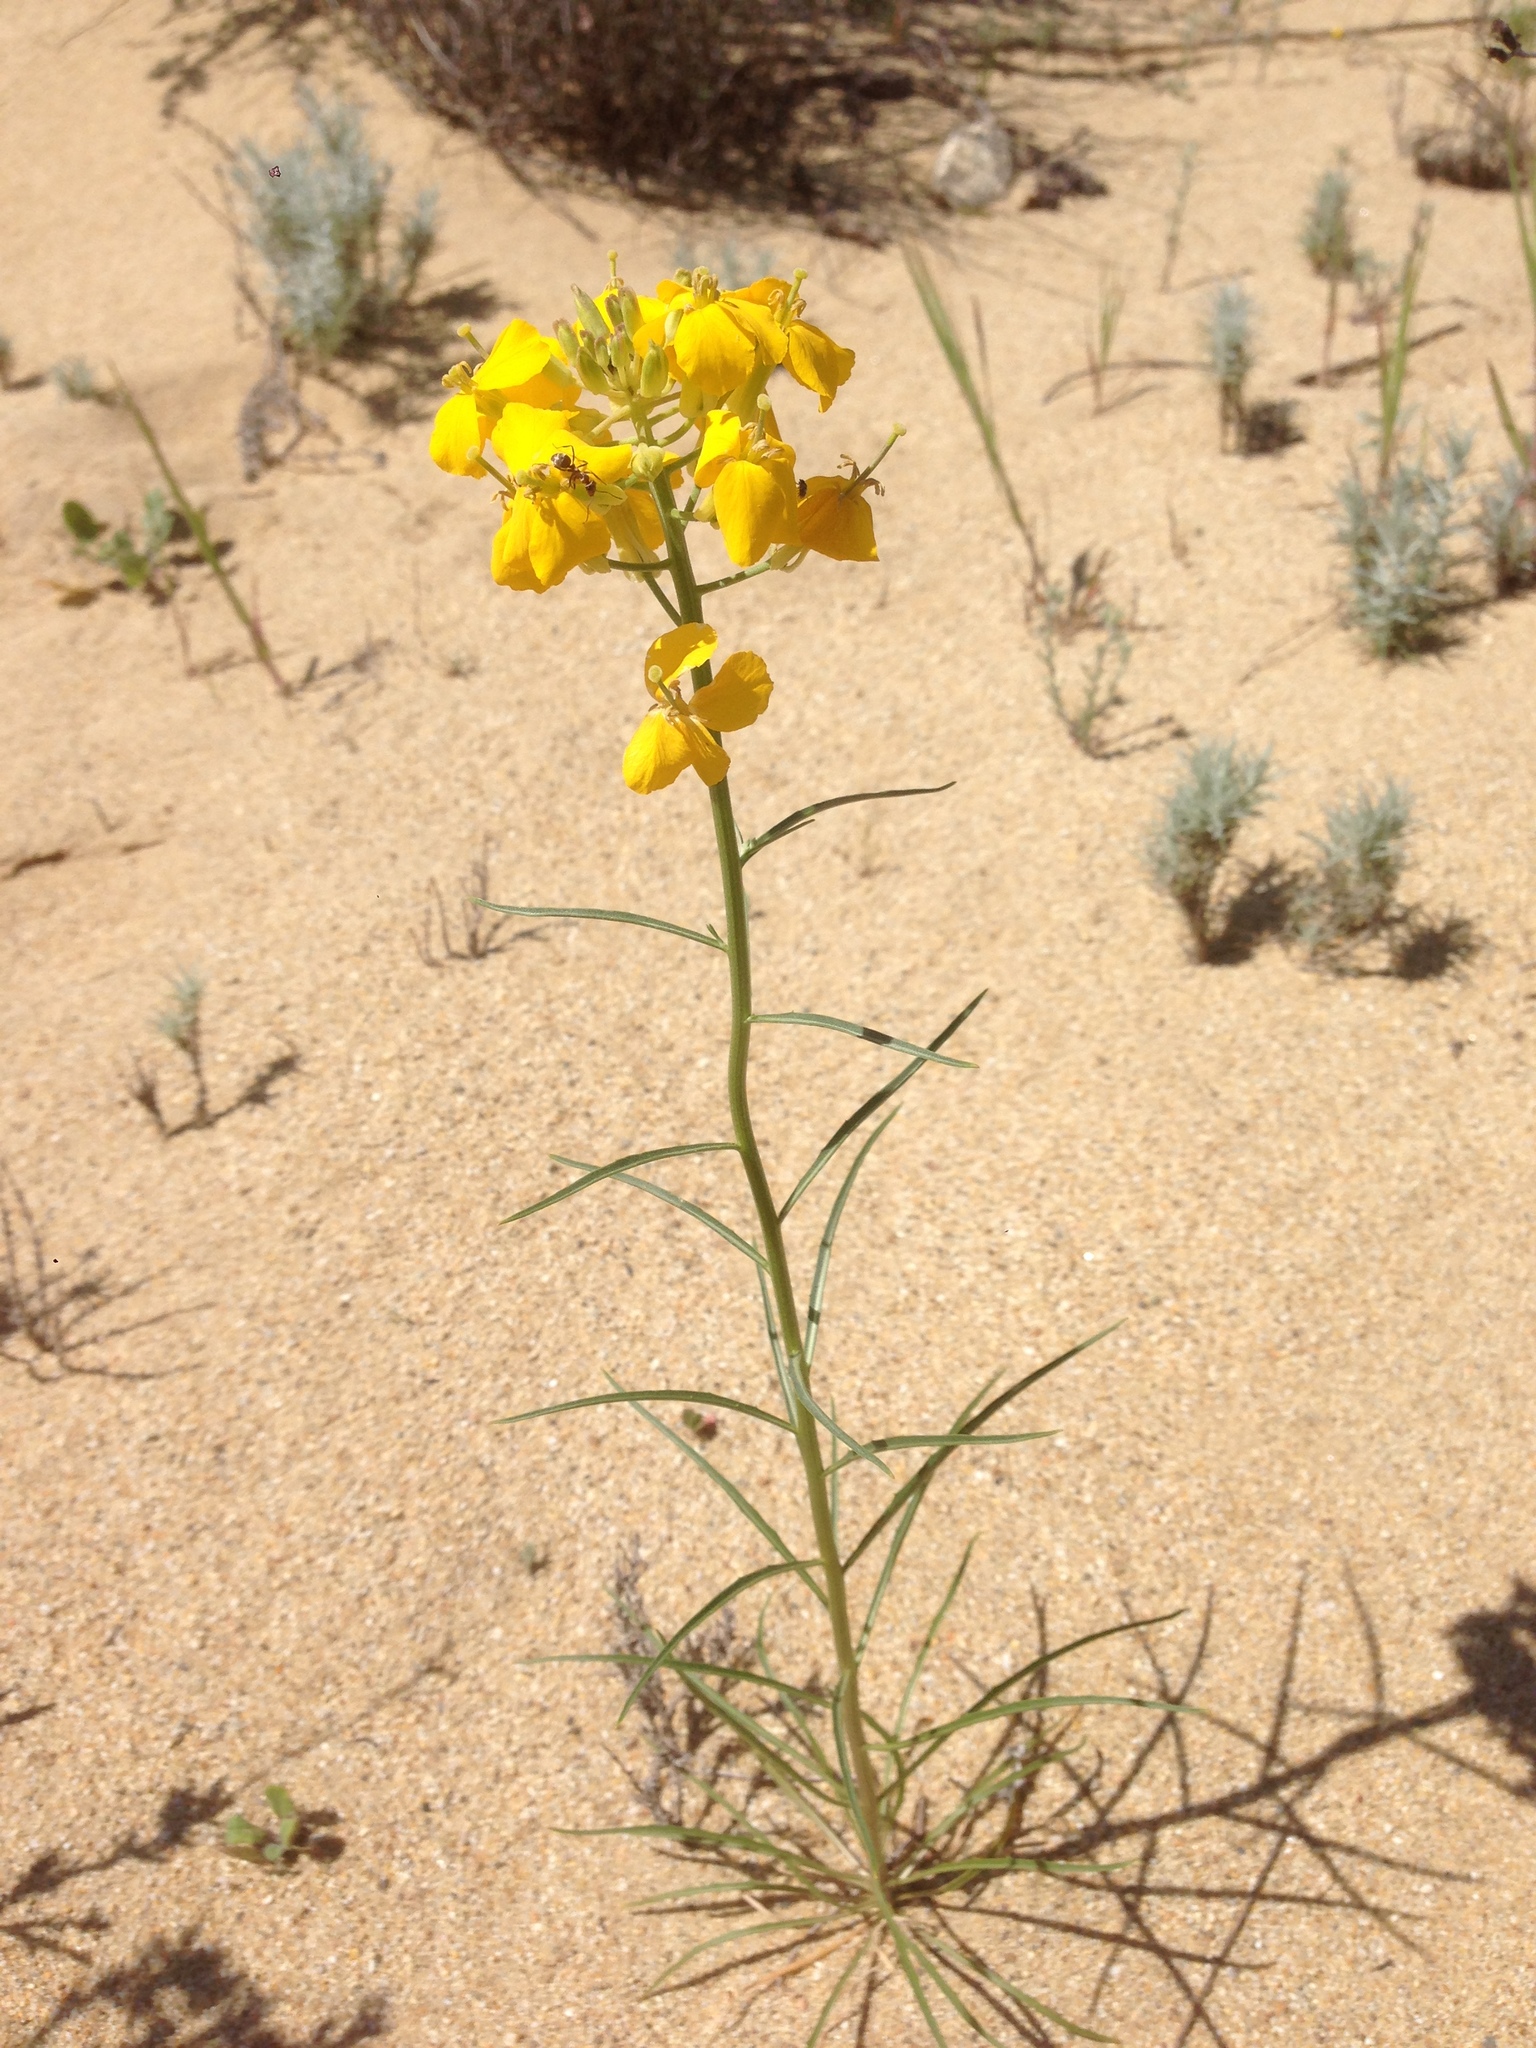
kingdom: Plantae
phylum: Tracheophyta
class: Magnoliopsida
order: Brassicales
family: Brassicaceae
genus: Erysimum
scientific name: Erysimum capitatum
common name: Western wallflower
